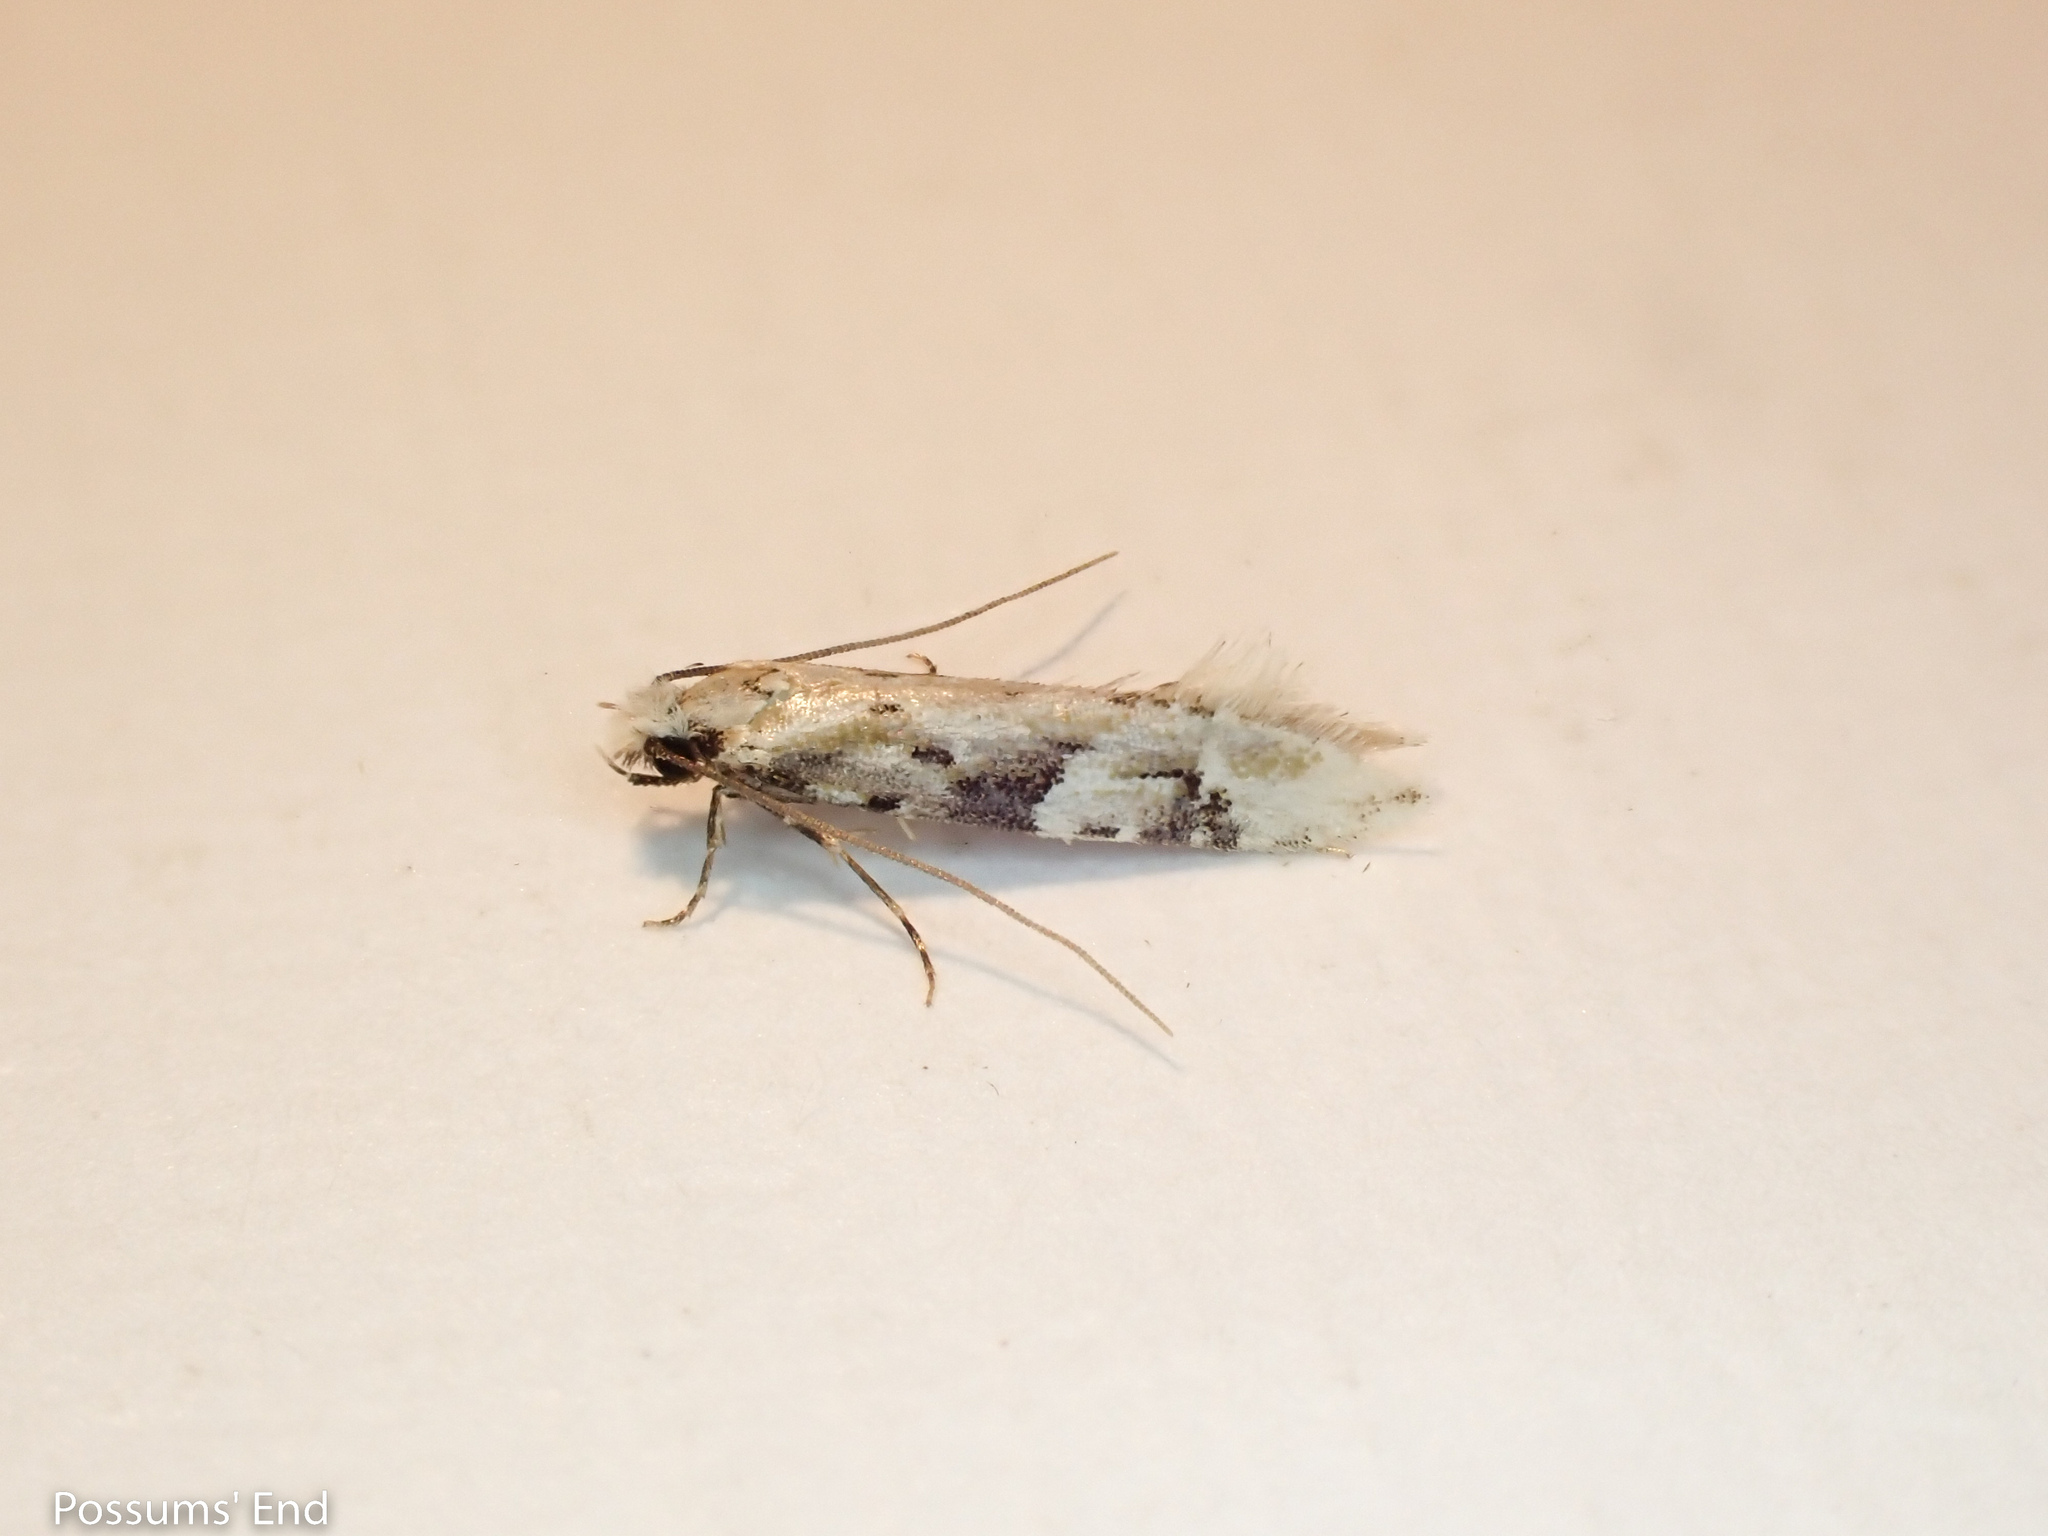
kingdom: Animalia
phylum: Arthropoda
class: Insecta
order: Lepidoptera
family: Tineidae
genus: Crypsitricha
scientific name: Crypsitricha mesotypa
